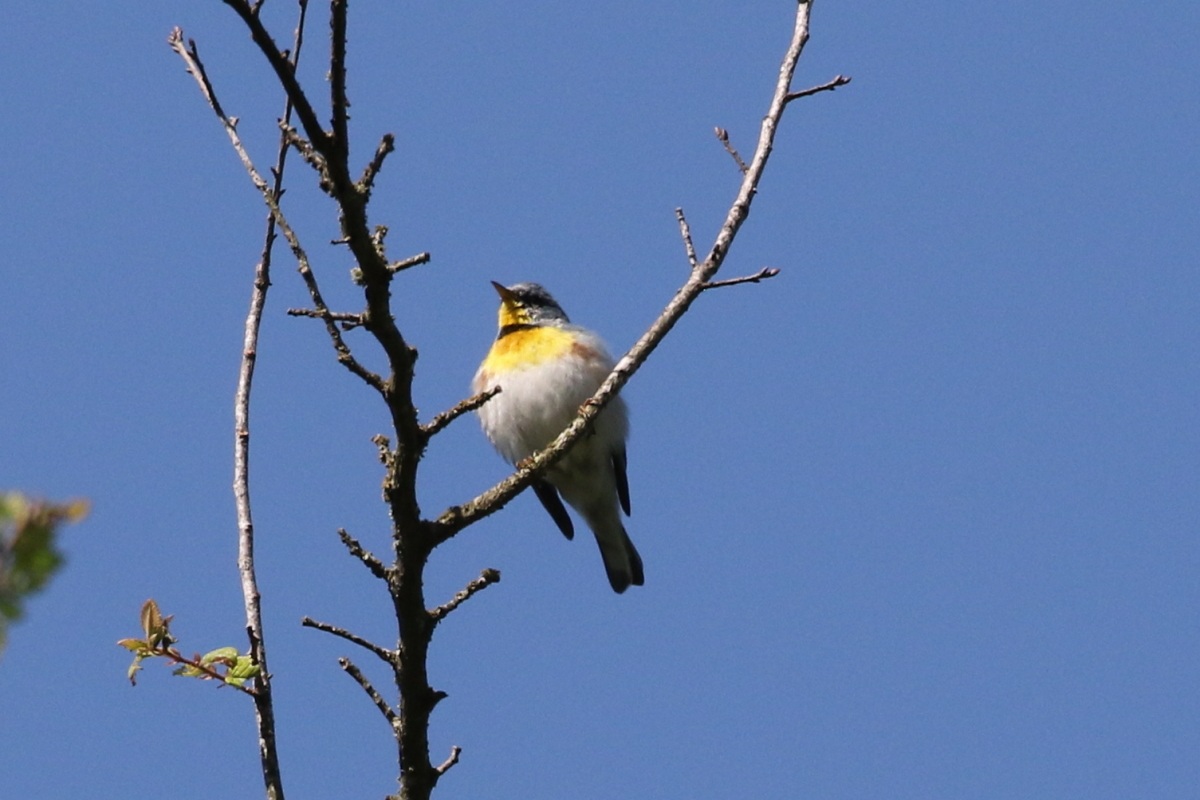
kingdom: Animalia
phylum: Chordata
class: Aves
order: Passeriformes
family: Parulidae
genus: Setophaga
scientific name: Setophaga americana
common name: Northern parula
